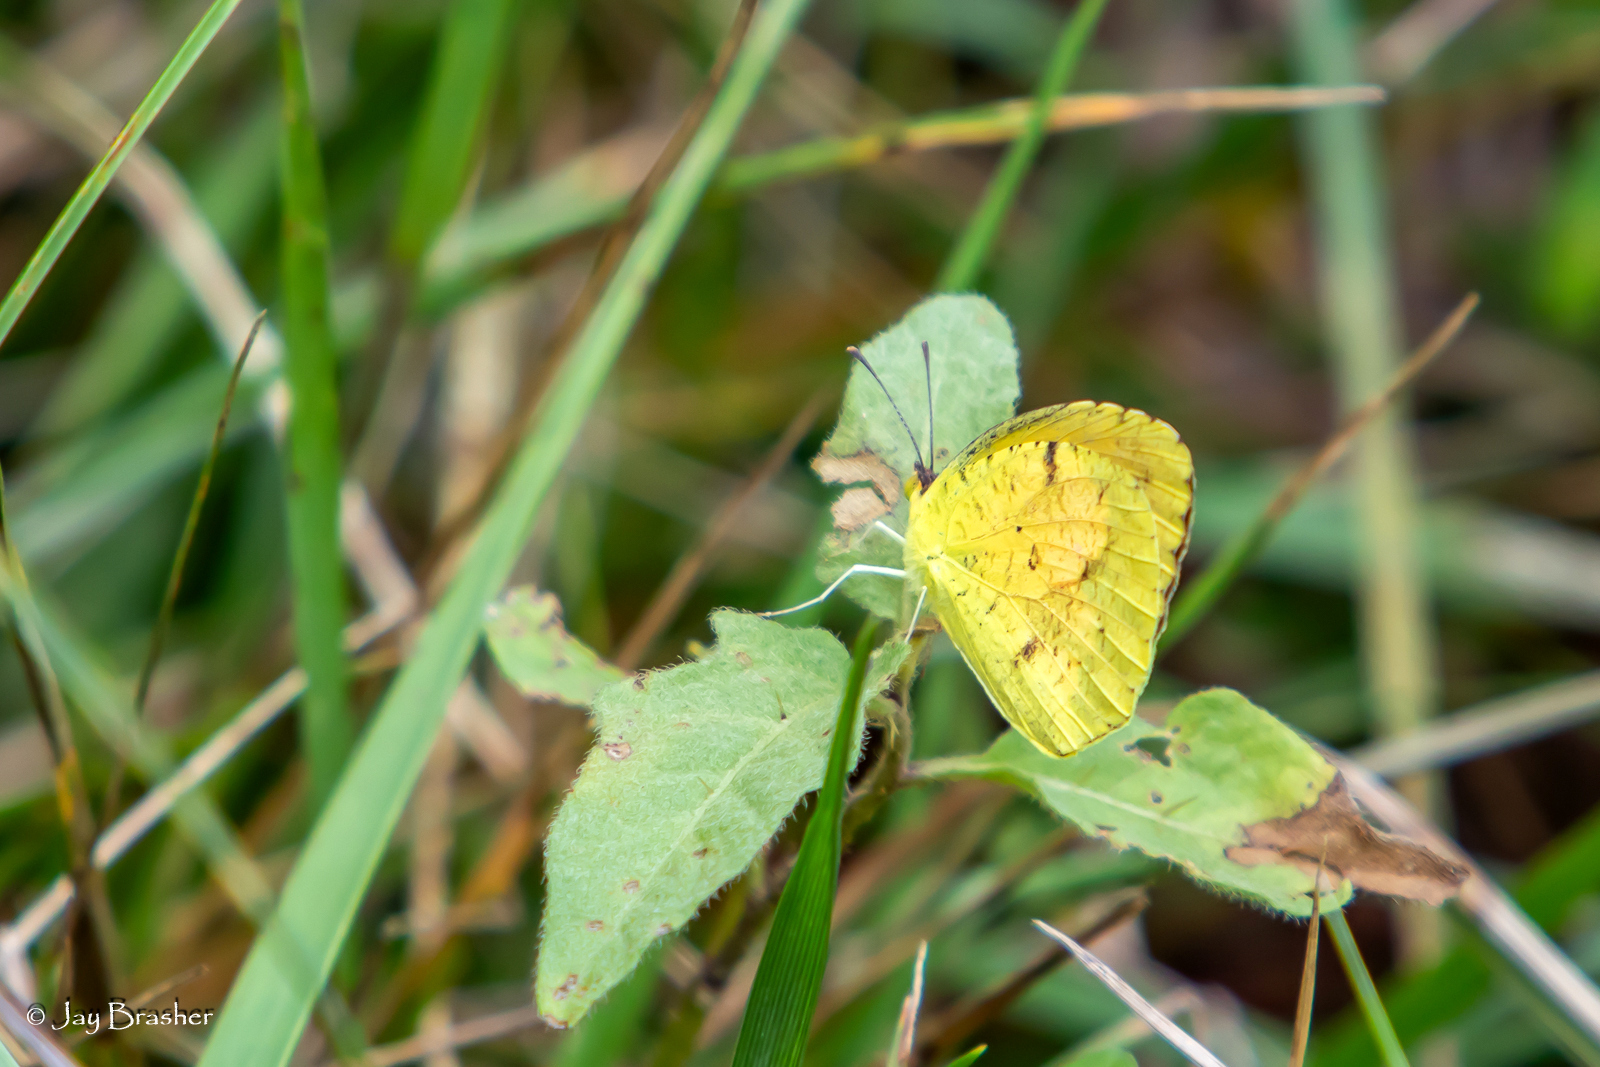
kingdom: Animalia
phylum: Arthropoda
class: Insecta
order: Lepidoptera
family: Pieridae
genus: Abaeis
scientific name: Abaeis nicippe
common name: Sleepy orange
